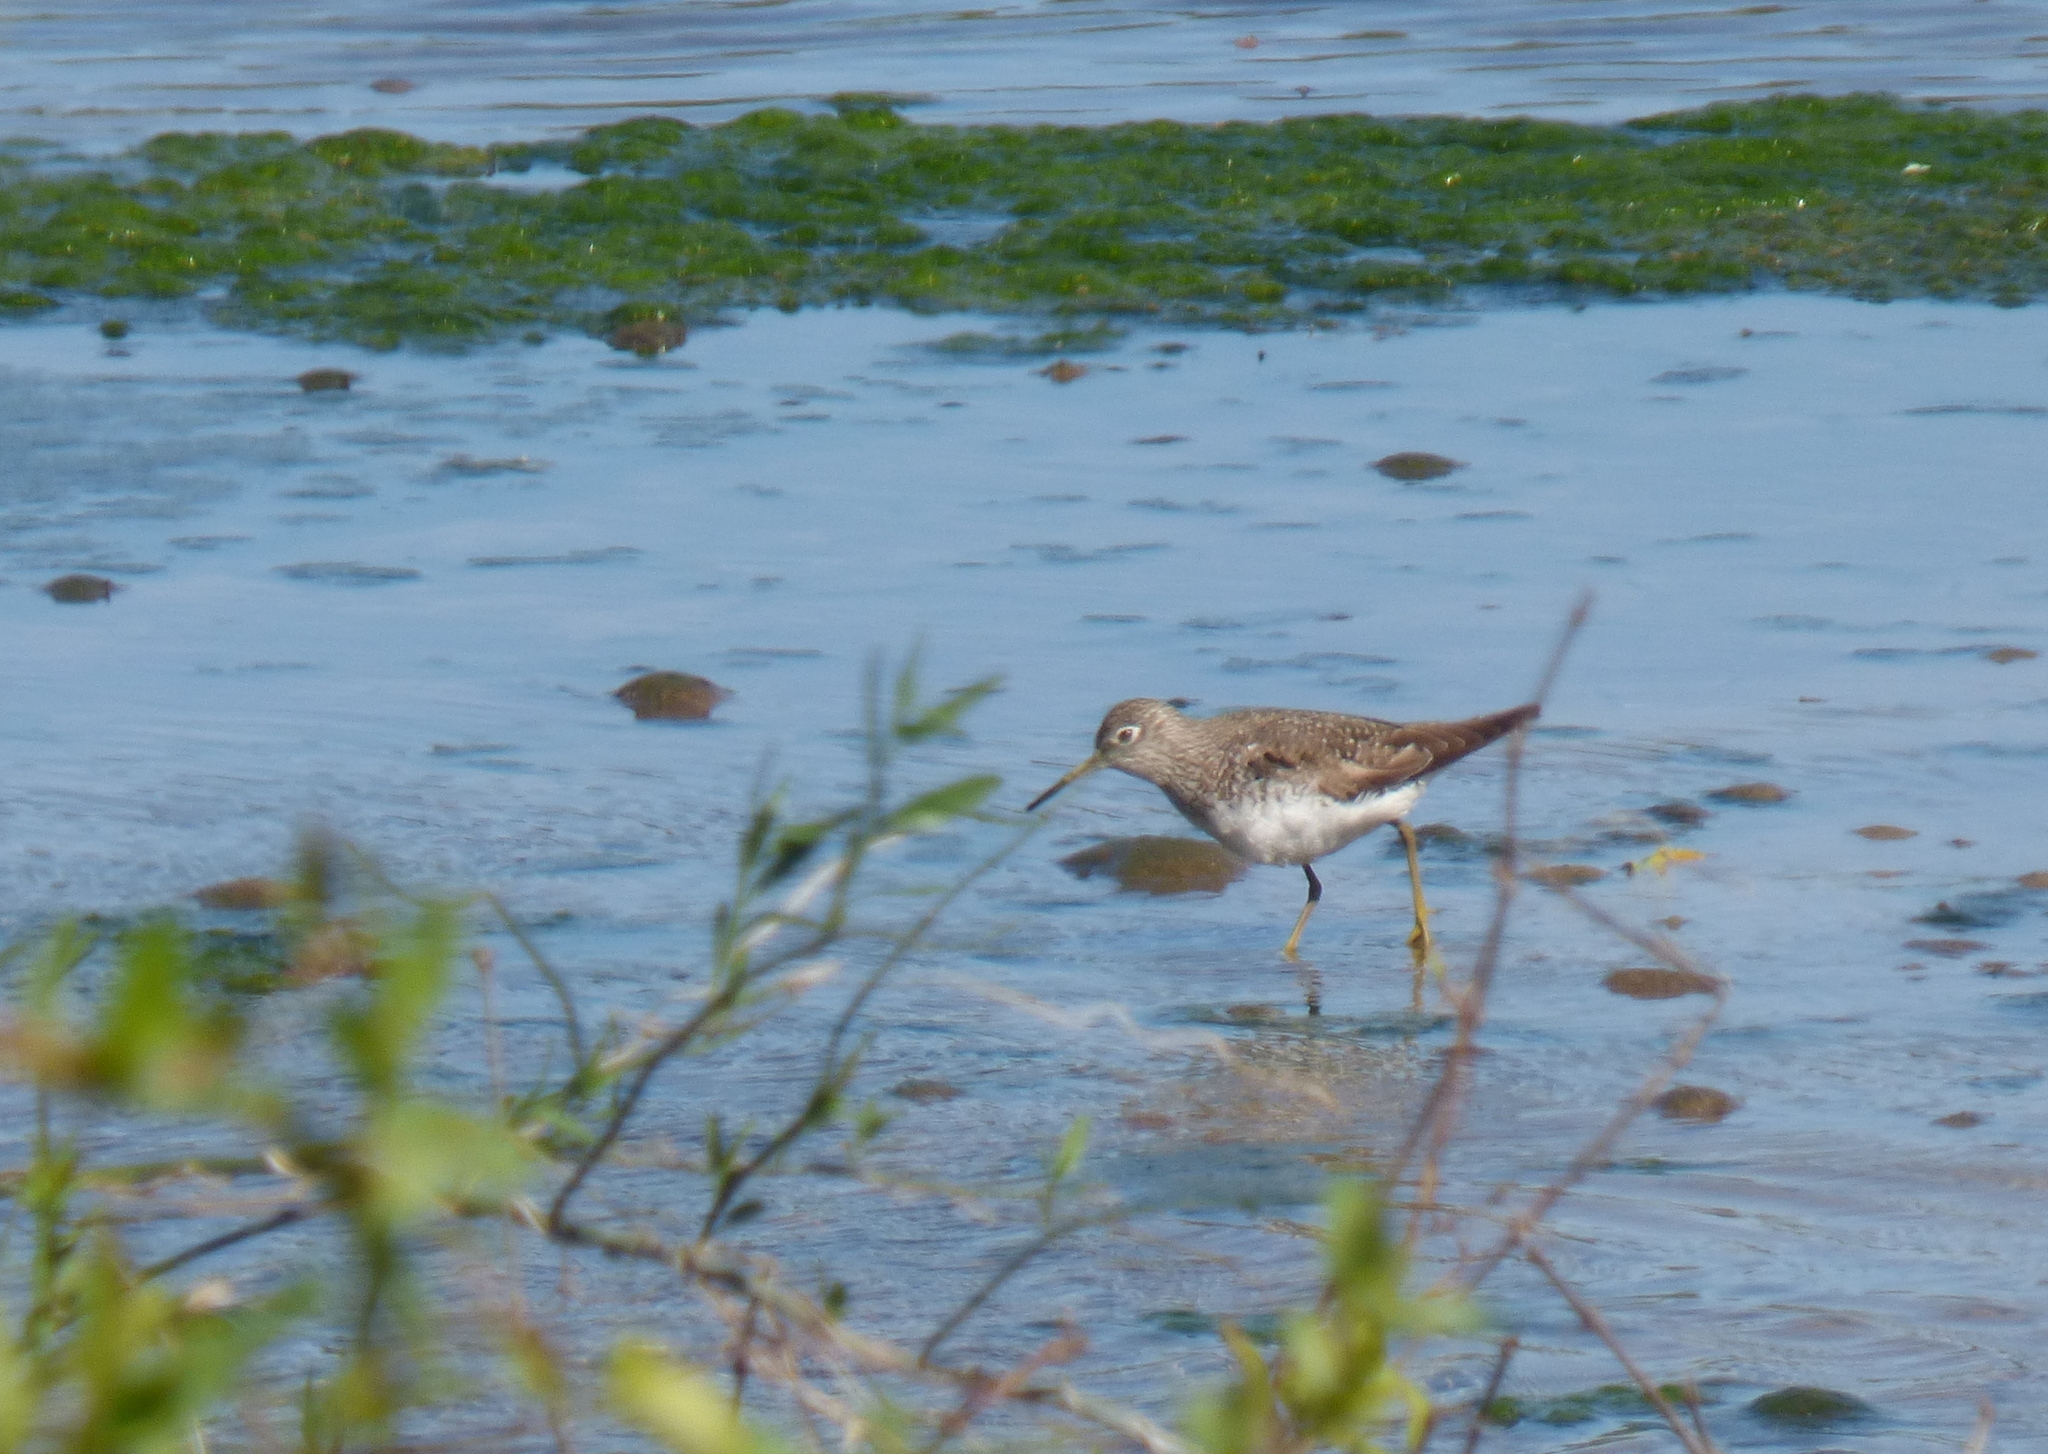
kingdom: Animalia
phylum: Chordata
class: Aves
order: Charadriiformes
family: Scolopacidae
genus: Tringa
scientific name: Tringa solitaria
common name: Solitary sandpiper
